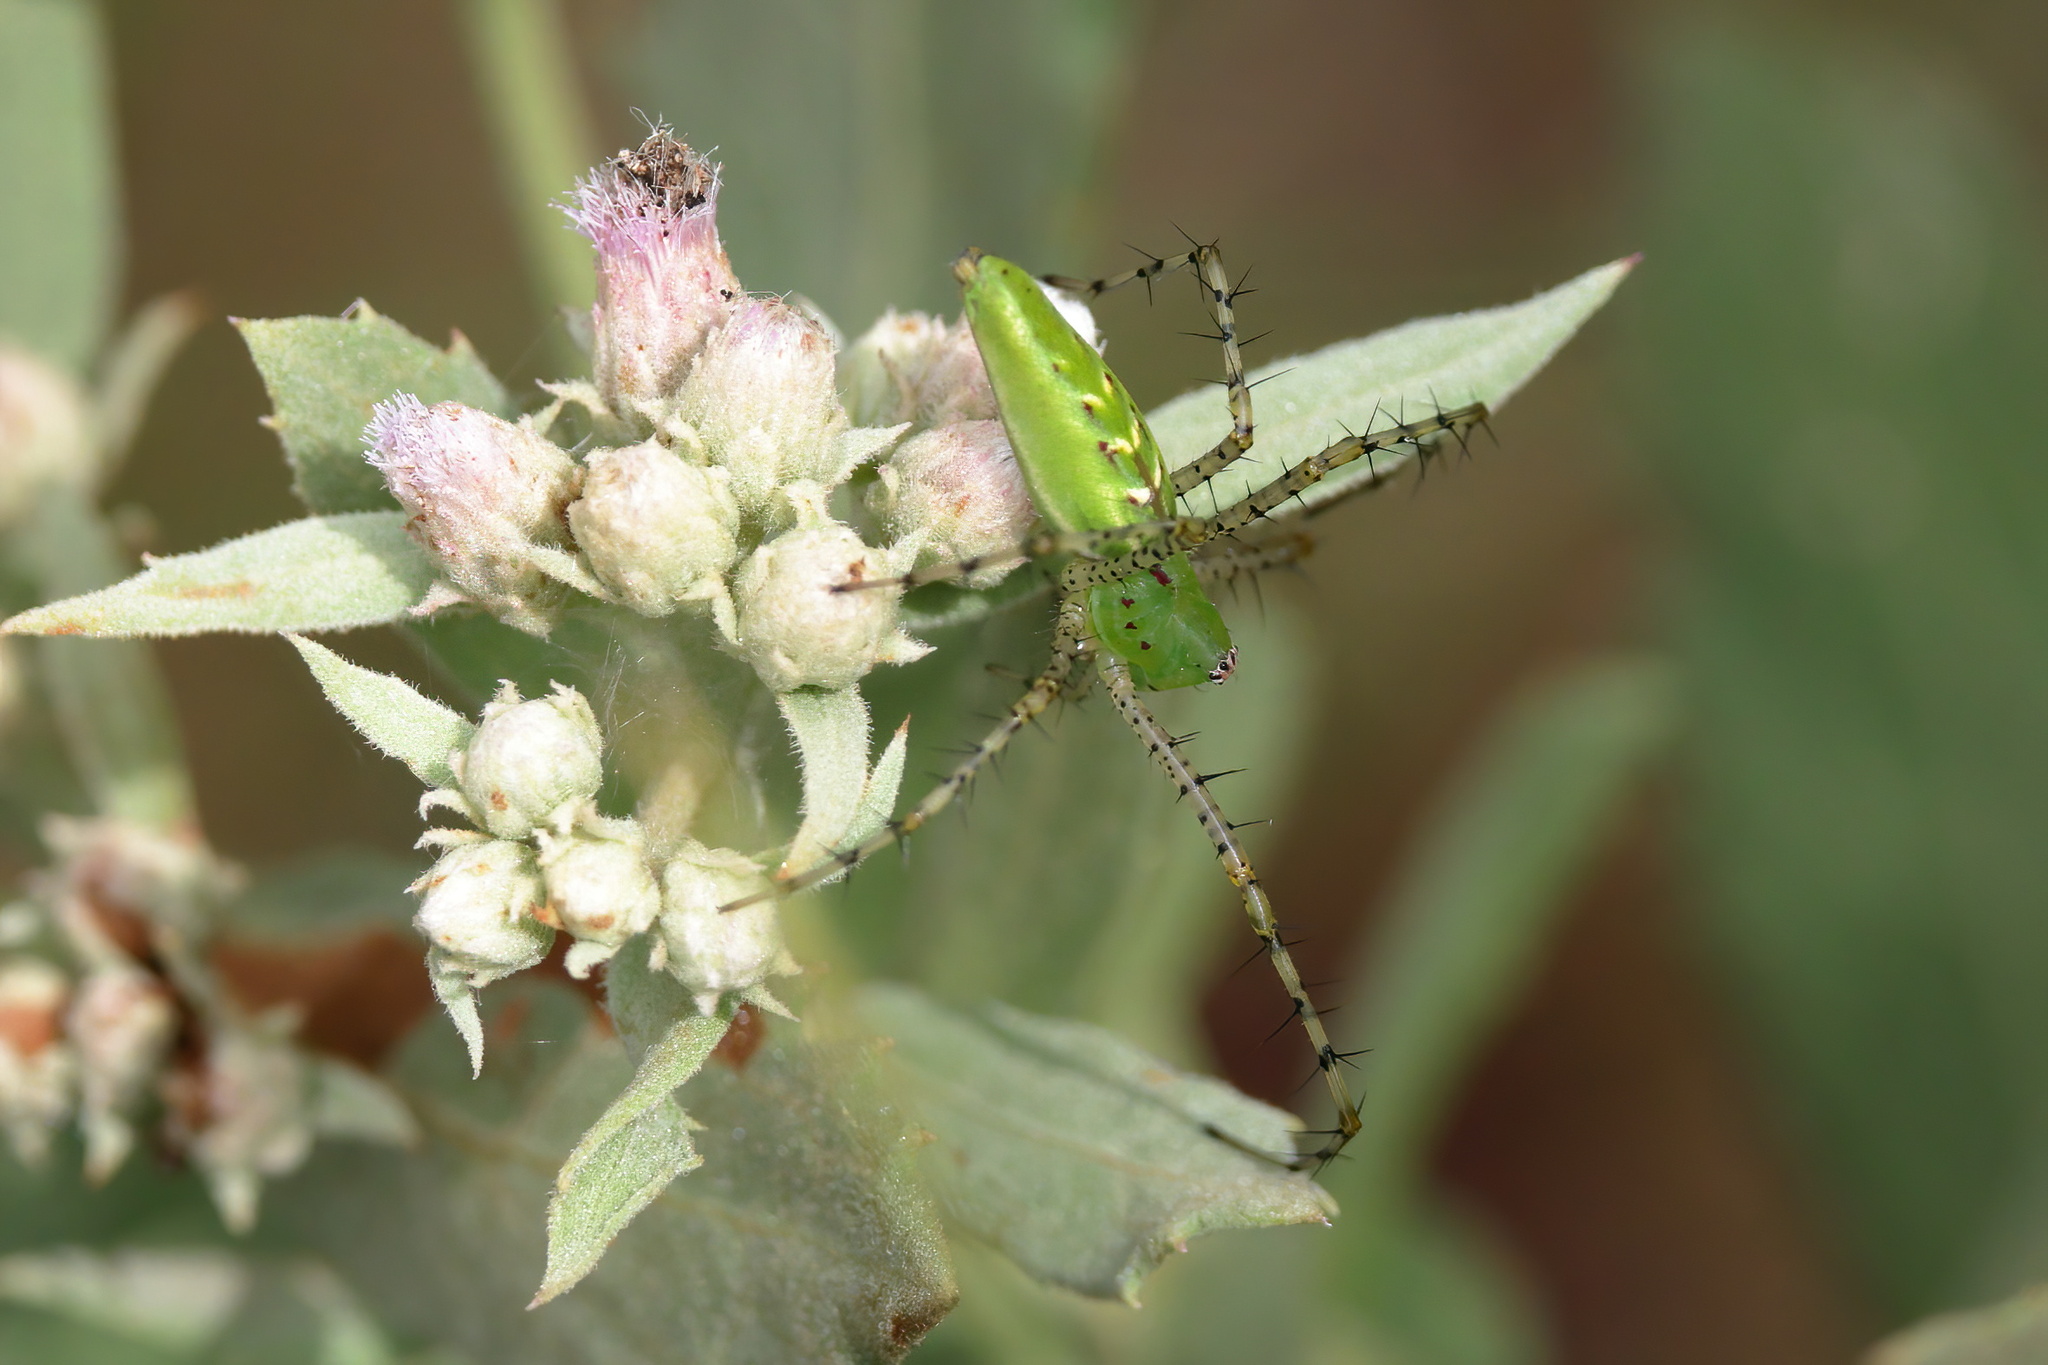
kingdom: Animalia
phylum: Arthropoda
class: Arachnida
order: Araneae
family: Oxyopidae
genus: Peucetia
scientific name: Peucetia viridans
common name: Lynx spiders
